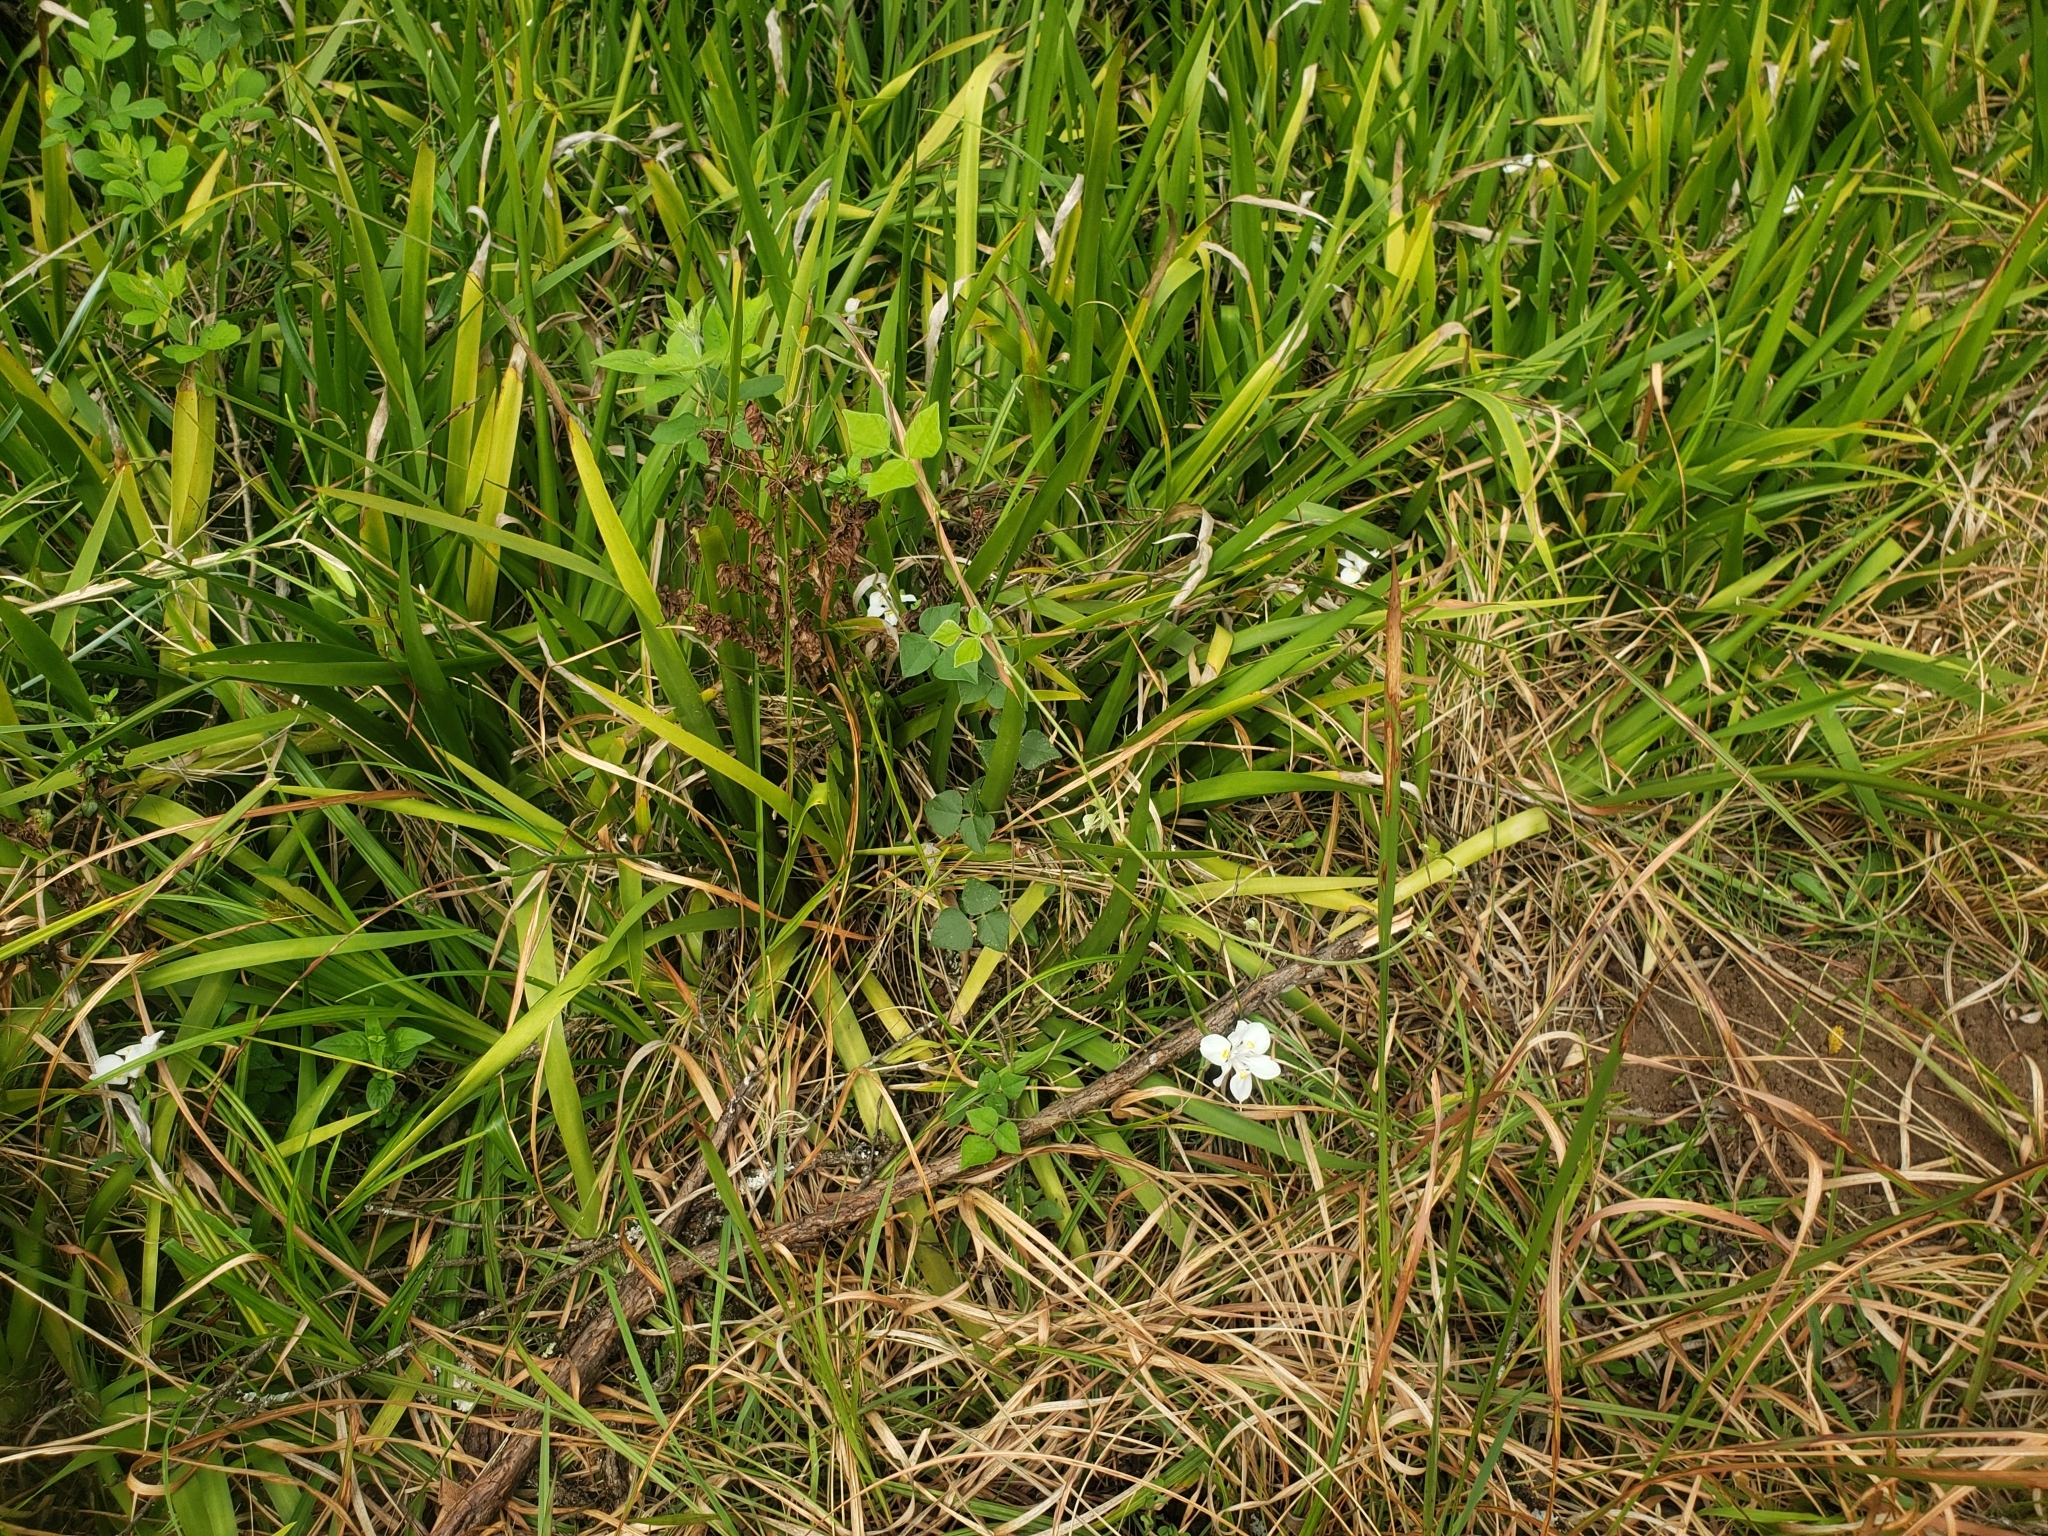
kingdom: Plantae
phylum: Tracheophyta
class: Liliopsida
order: Asparagales
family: Iridaceae
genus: Dietes
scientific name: Dietes iridioides
